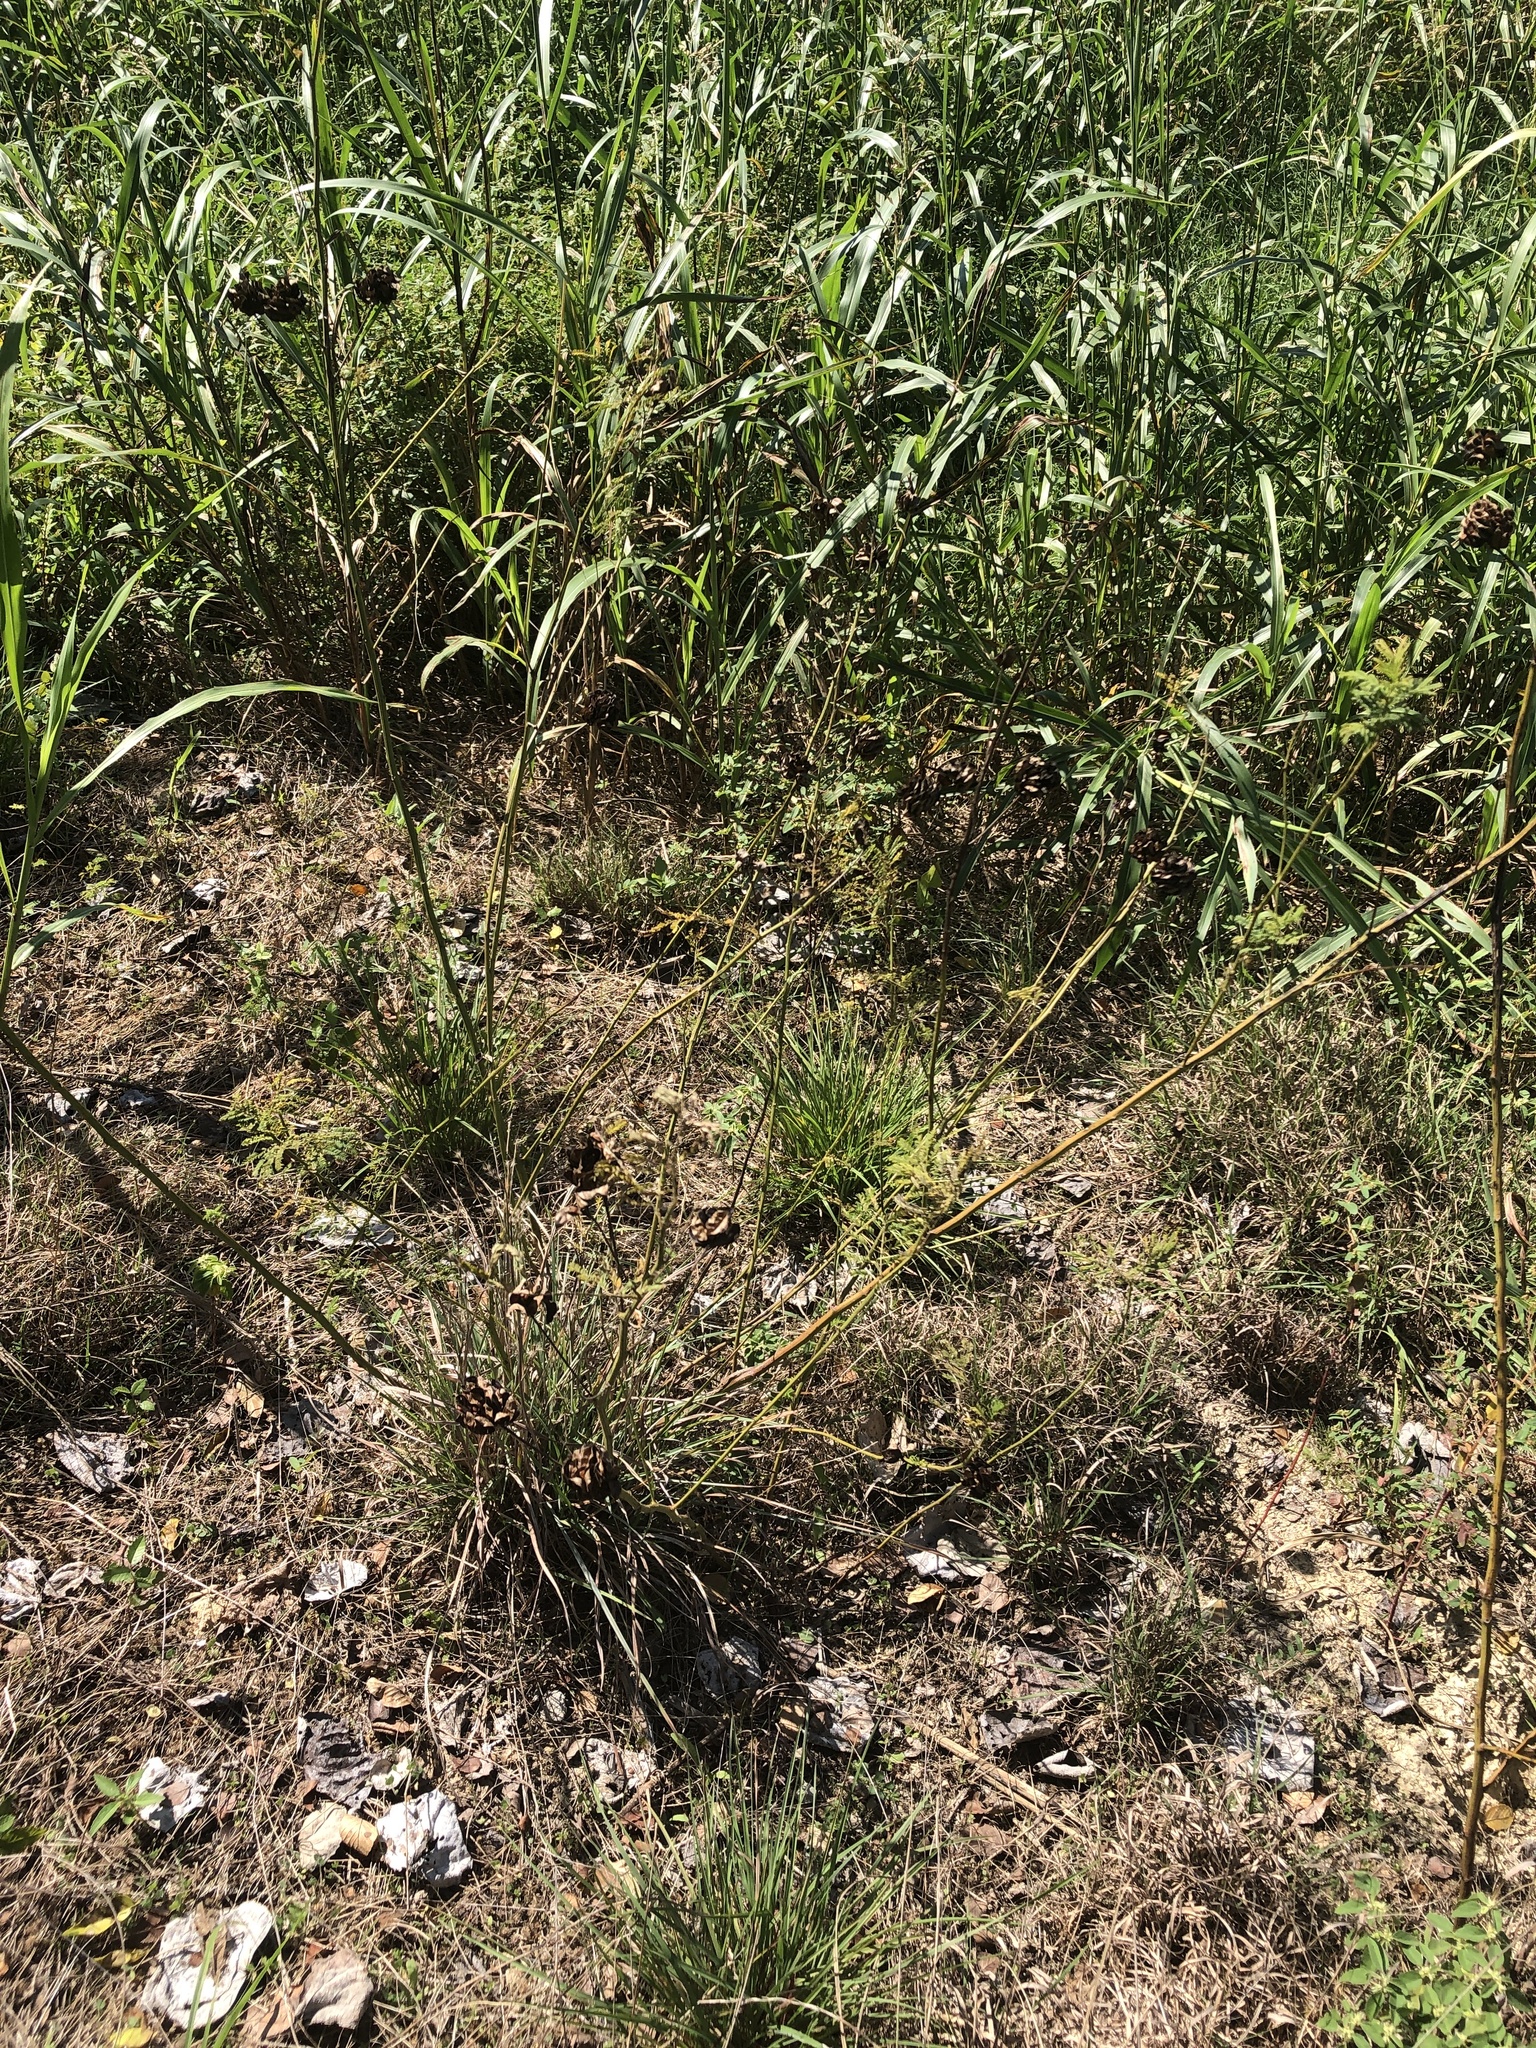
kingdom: Plantae
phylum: Tracheophyta
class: Magnoliopsida
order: Fabales
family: Fabaceae
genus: Desmanthus
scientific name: Desmanthus illinoensis
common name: Illinois bundle-flower
